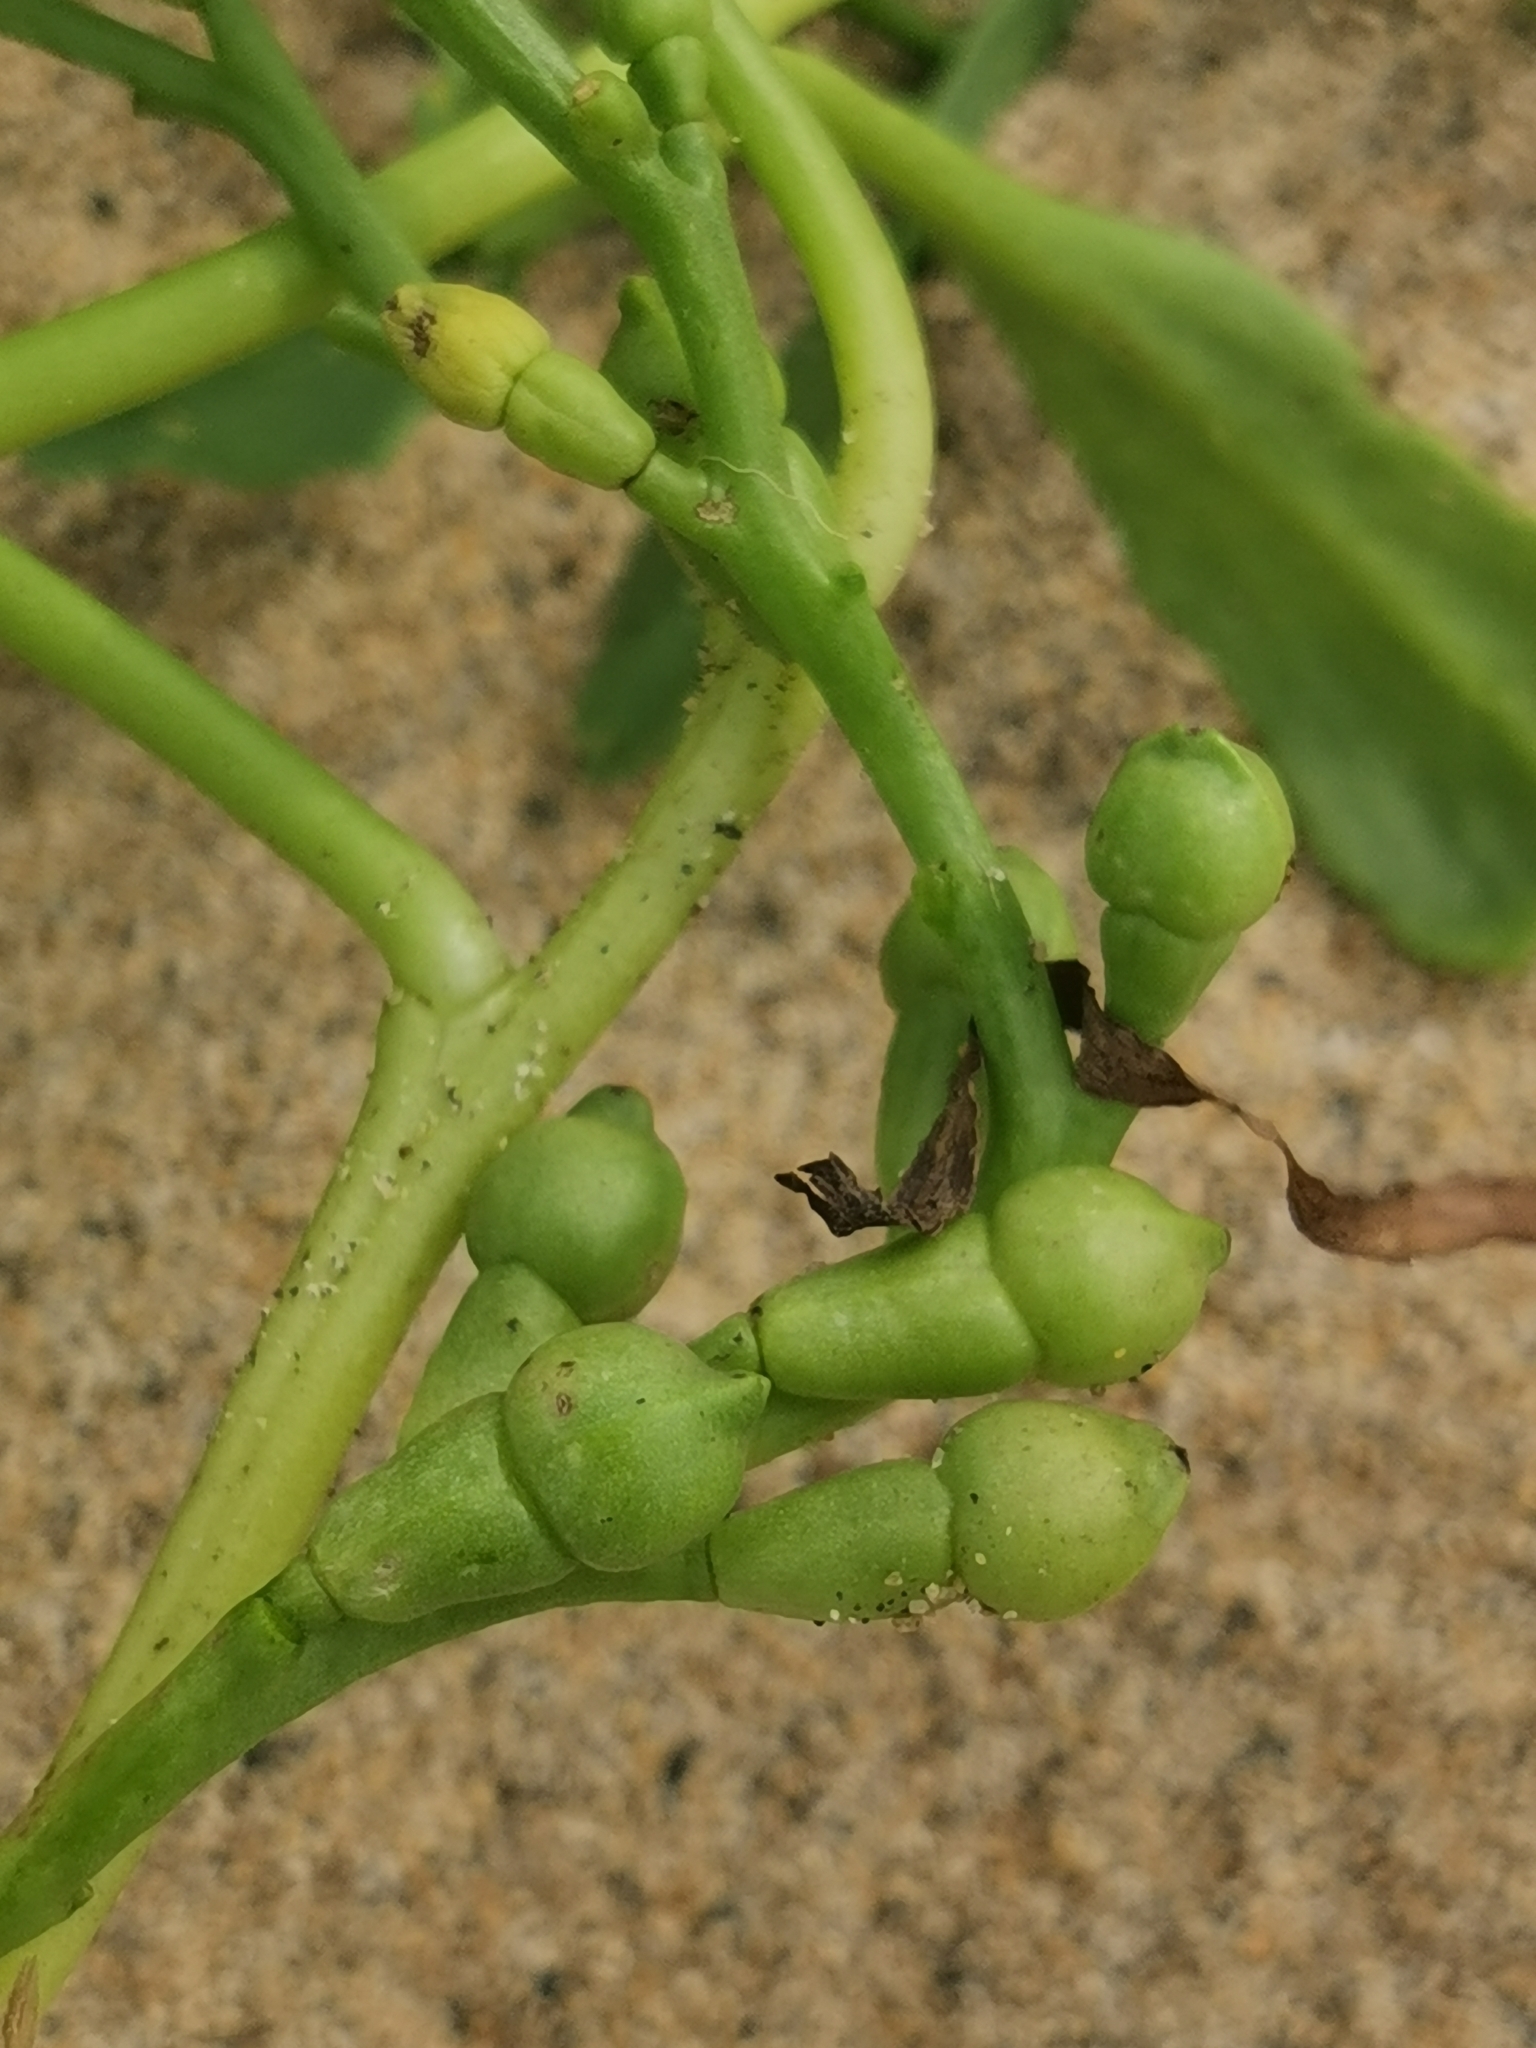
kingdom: Plantae
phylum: Tracheophyta
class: Magnoliopsida
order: Brassicales
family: Brassicaceae
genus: Cakile
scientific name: Cakile edentula
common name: American sea rocket
